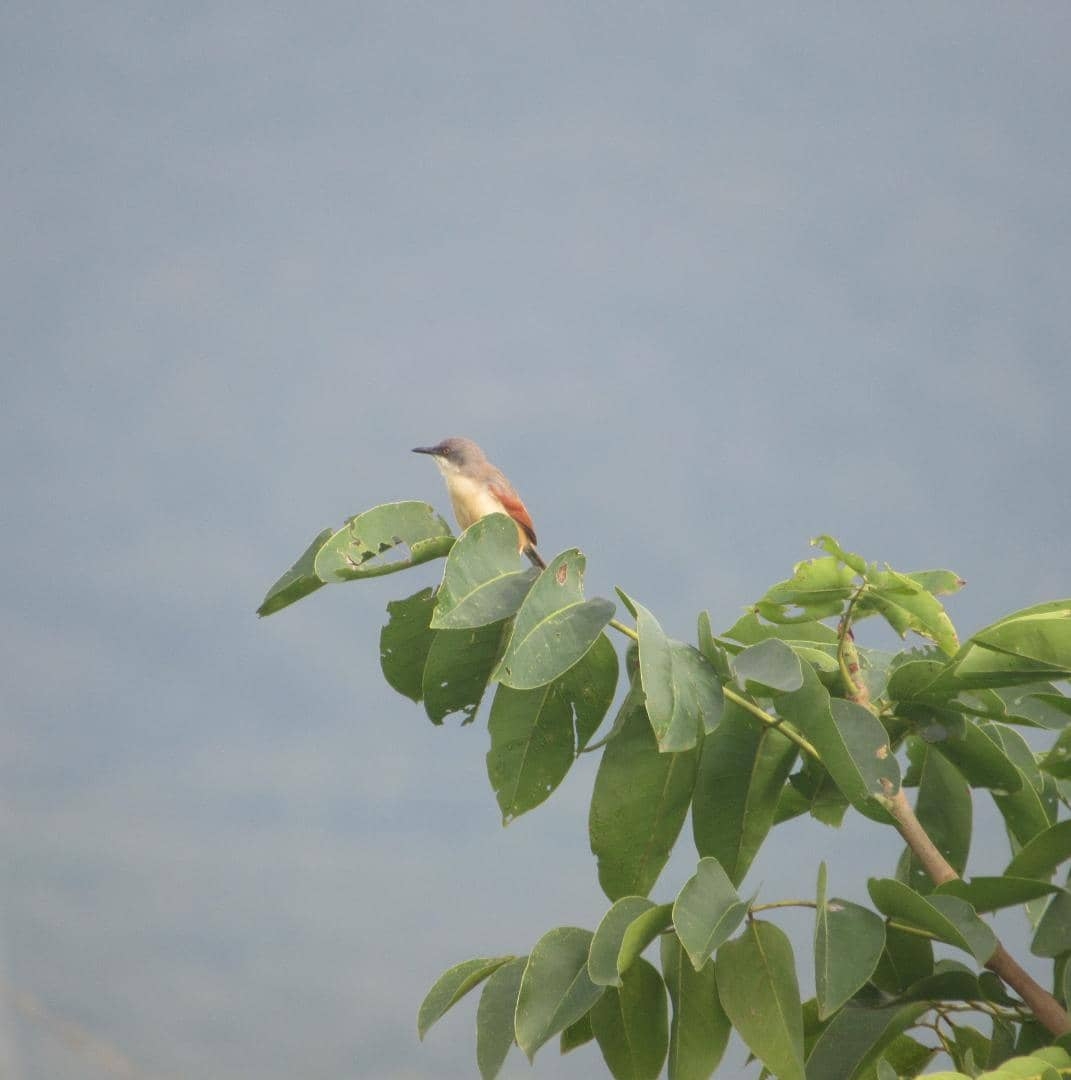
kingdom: Animalia
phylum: Chordata
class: Aves
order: Passeriformes
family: Cisticolidae
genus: Heliolais
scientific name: Heliolais erythropterus
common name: Red-winged warbler
